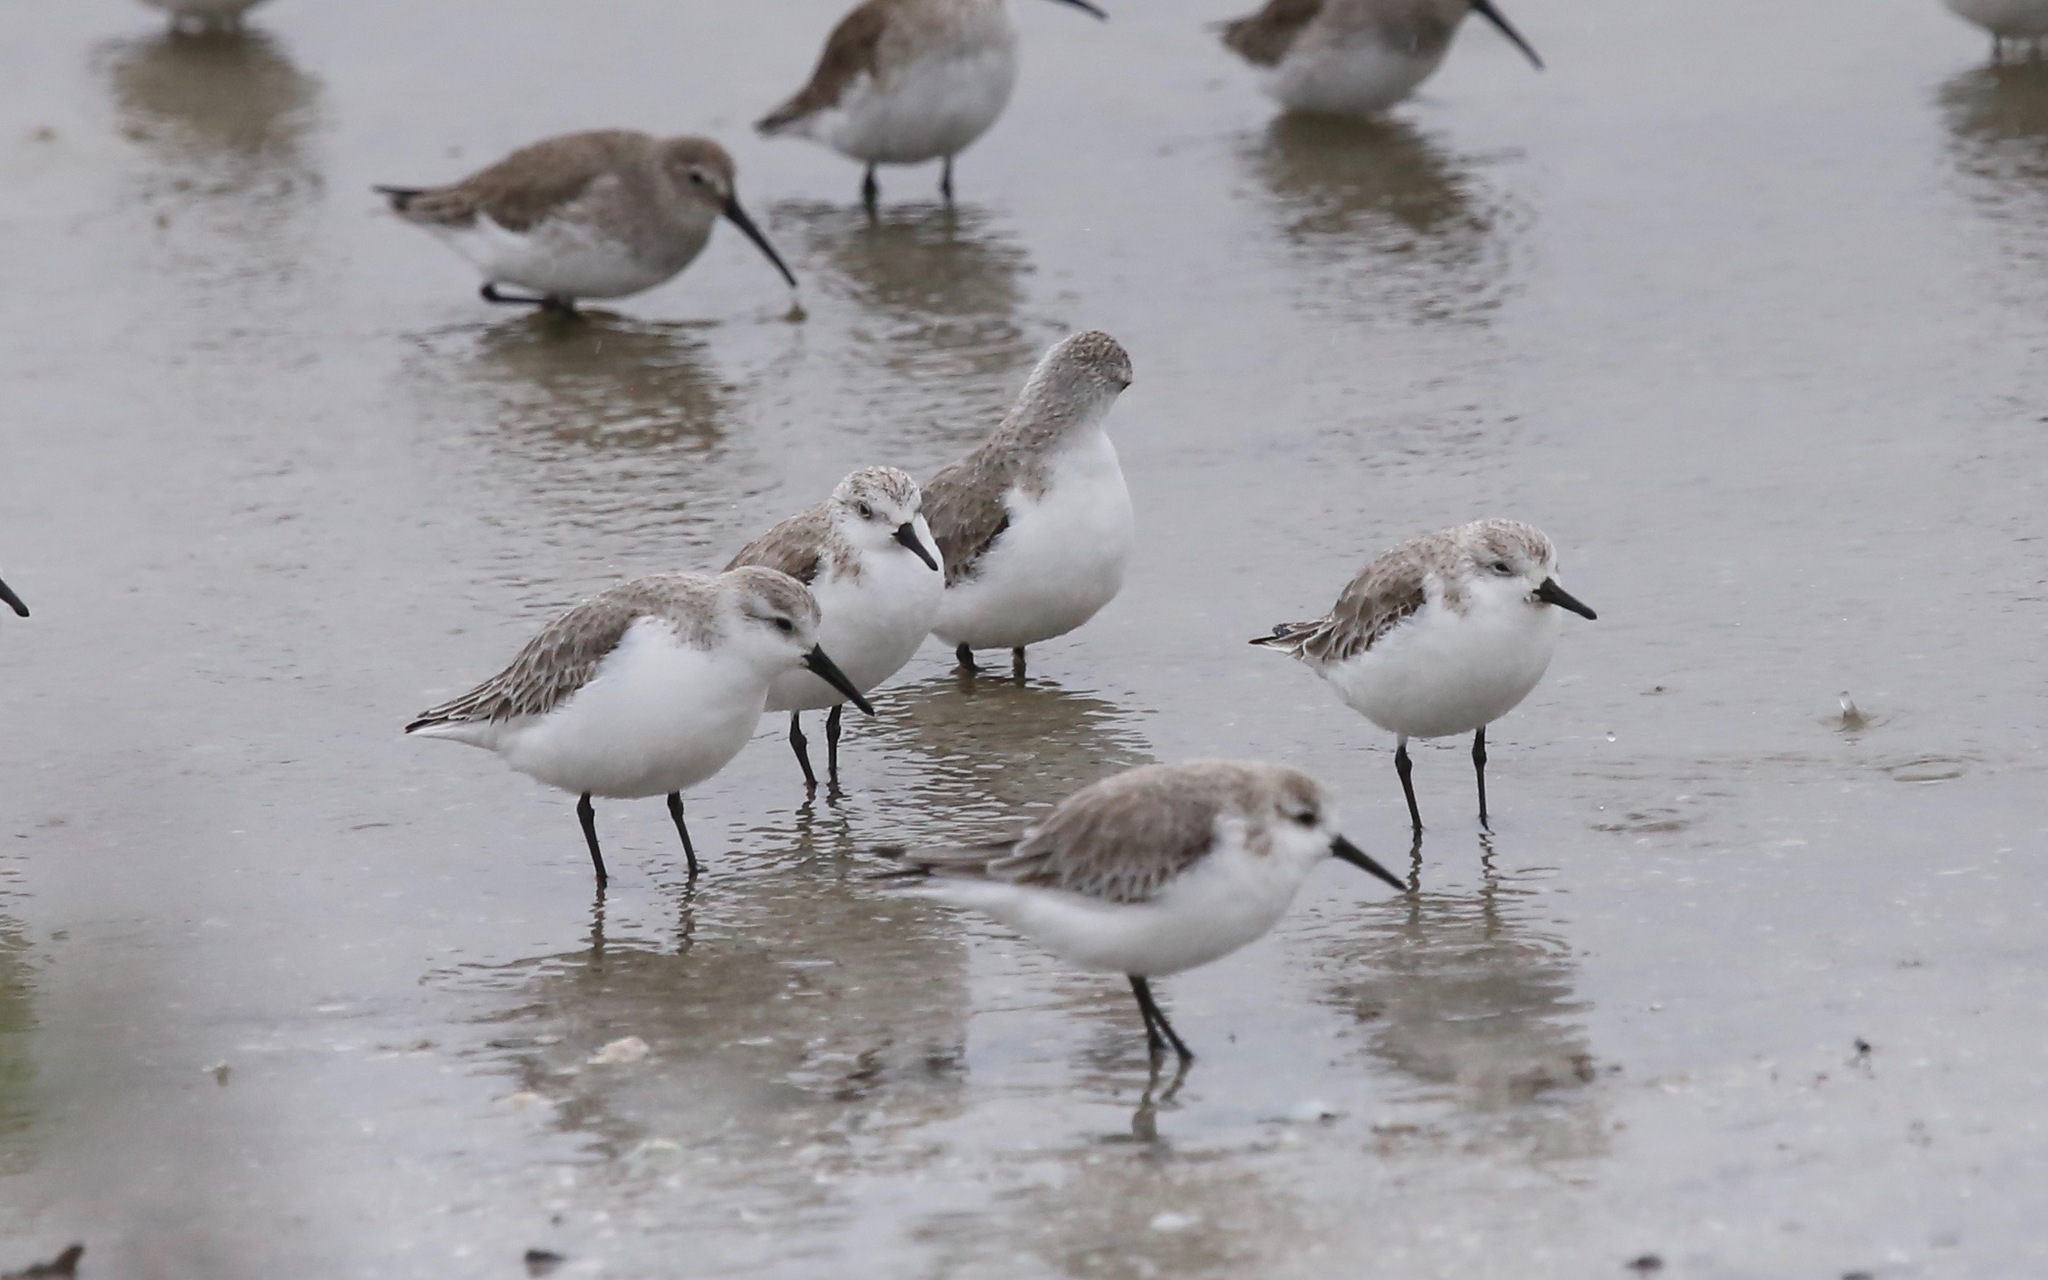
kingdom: Animalia
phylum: Chordata
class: Aves
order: Charadriiformes
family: Scolopacidae
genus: Calidris
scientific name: Calidris alba
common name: Sanderling
